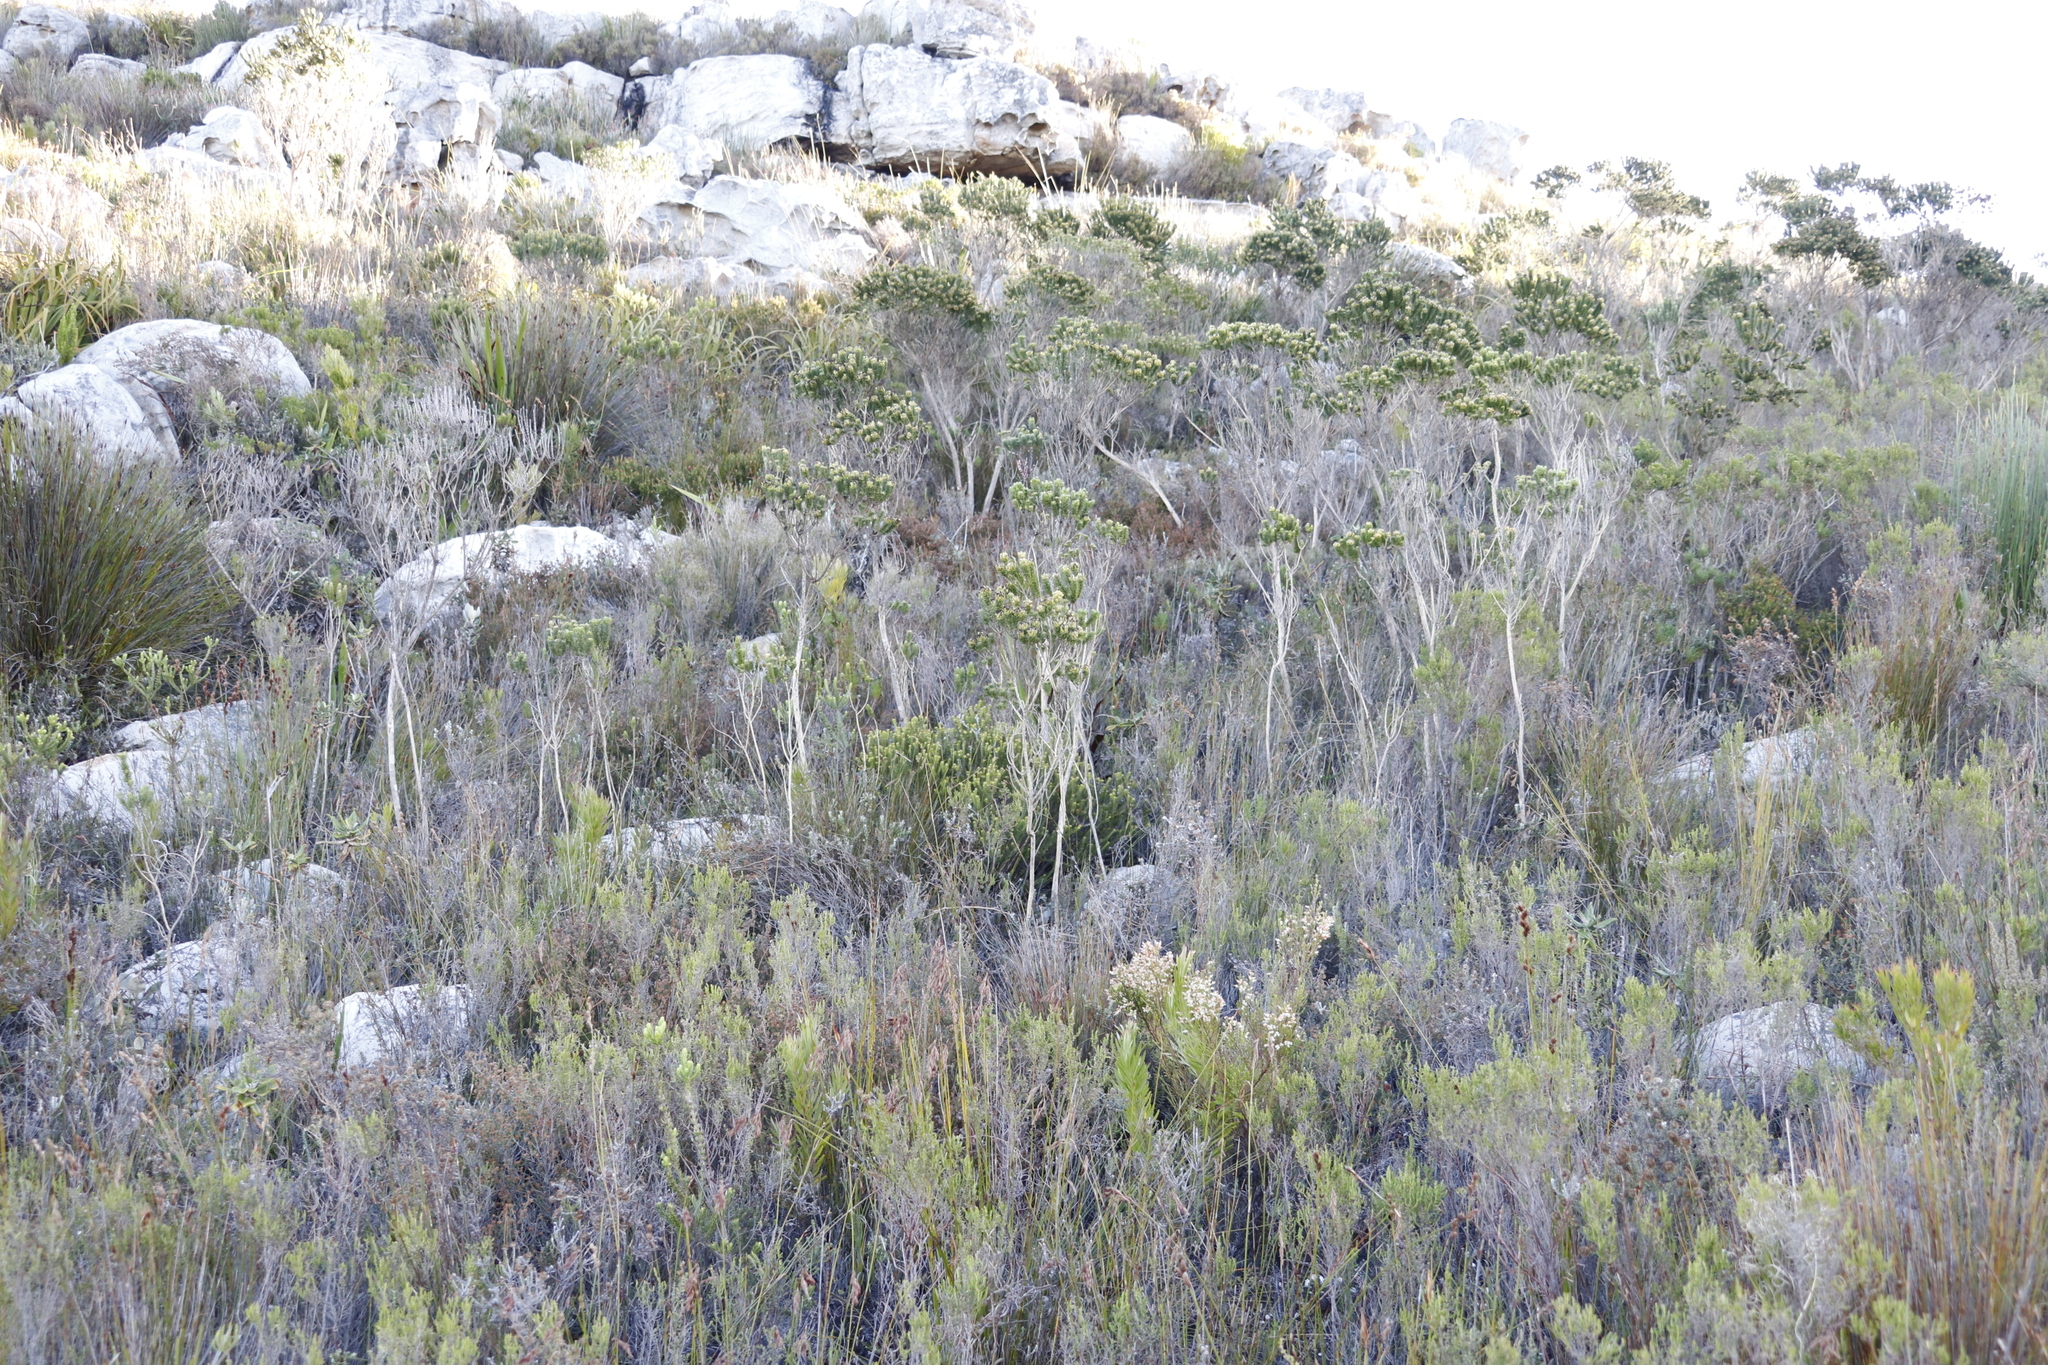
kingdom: Plantae
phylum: Tracheophyta
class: Magnoliopsida
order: Fabales
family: Fabaceae
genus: Aspalathus
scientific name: Aspalathus capitata
